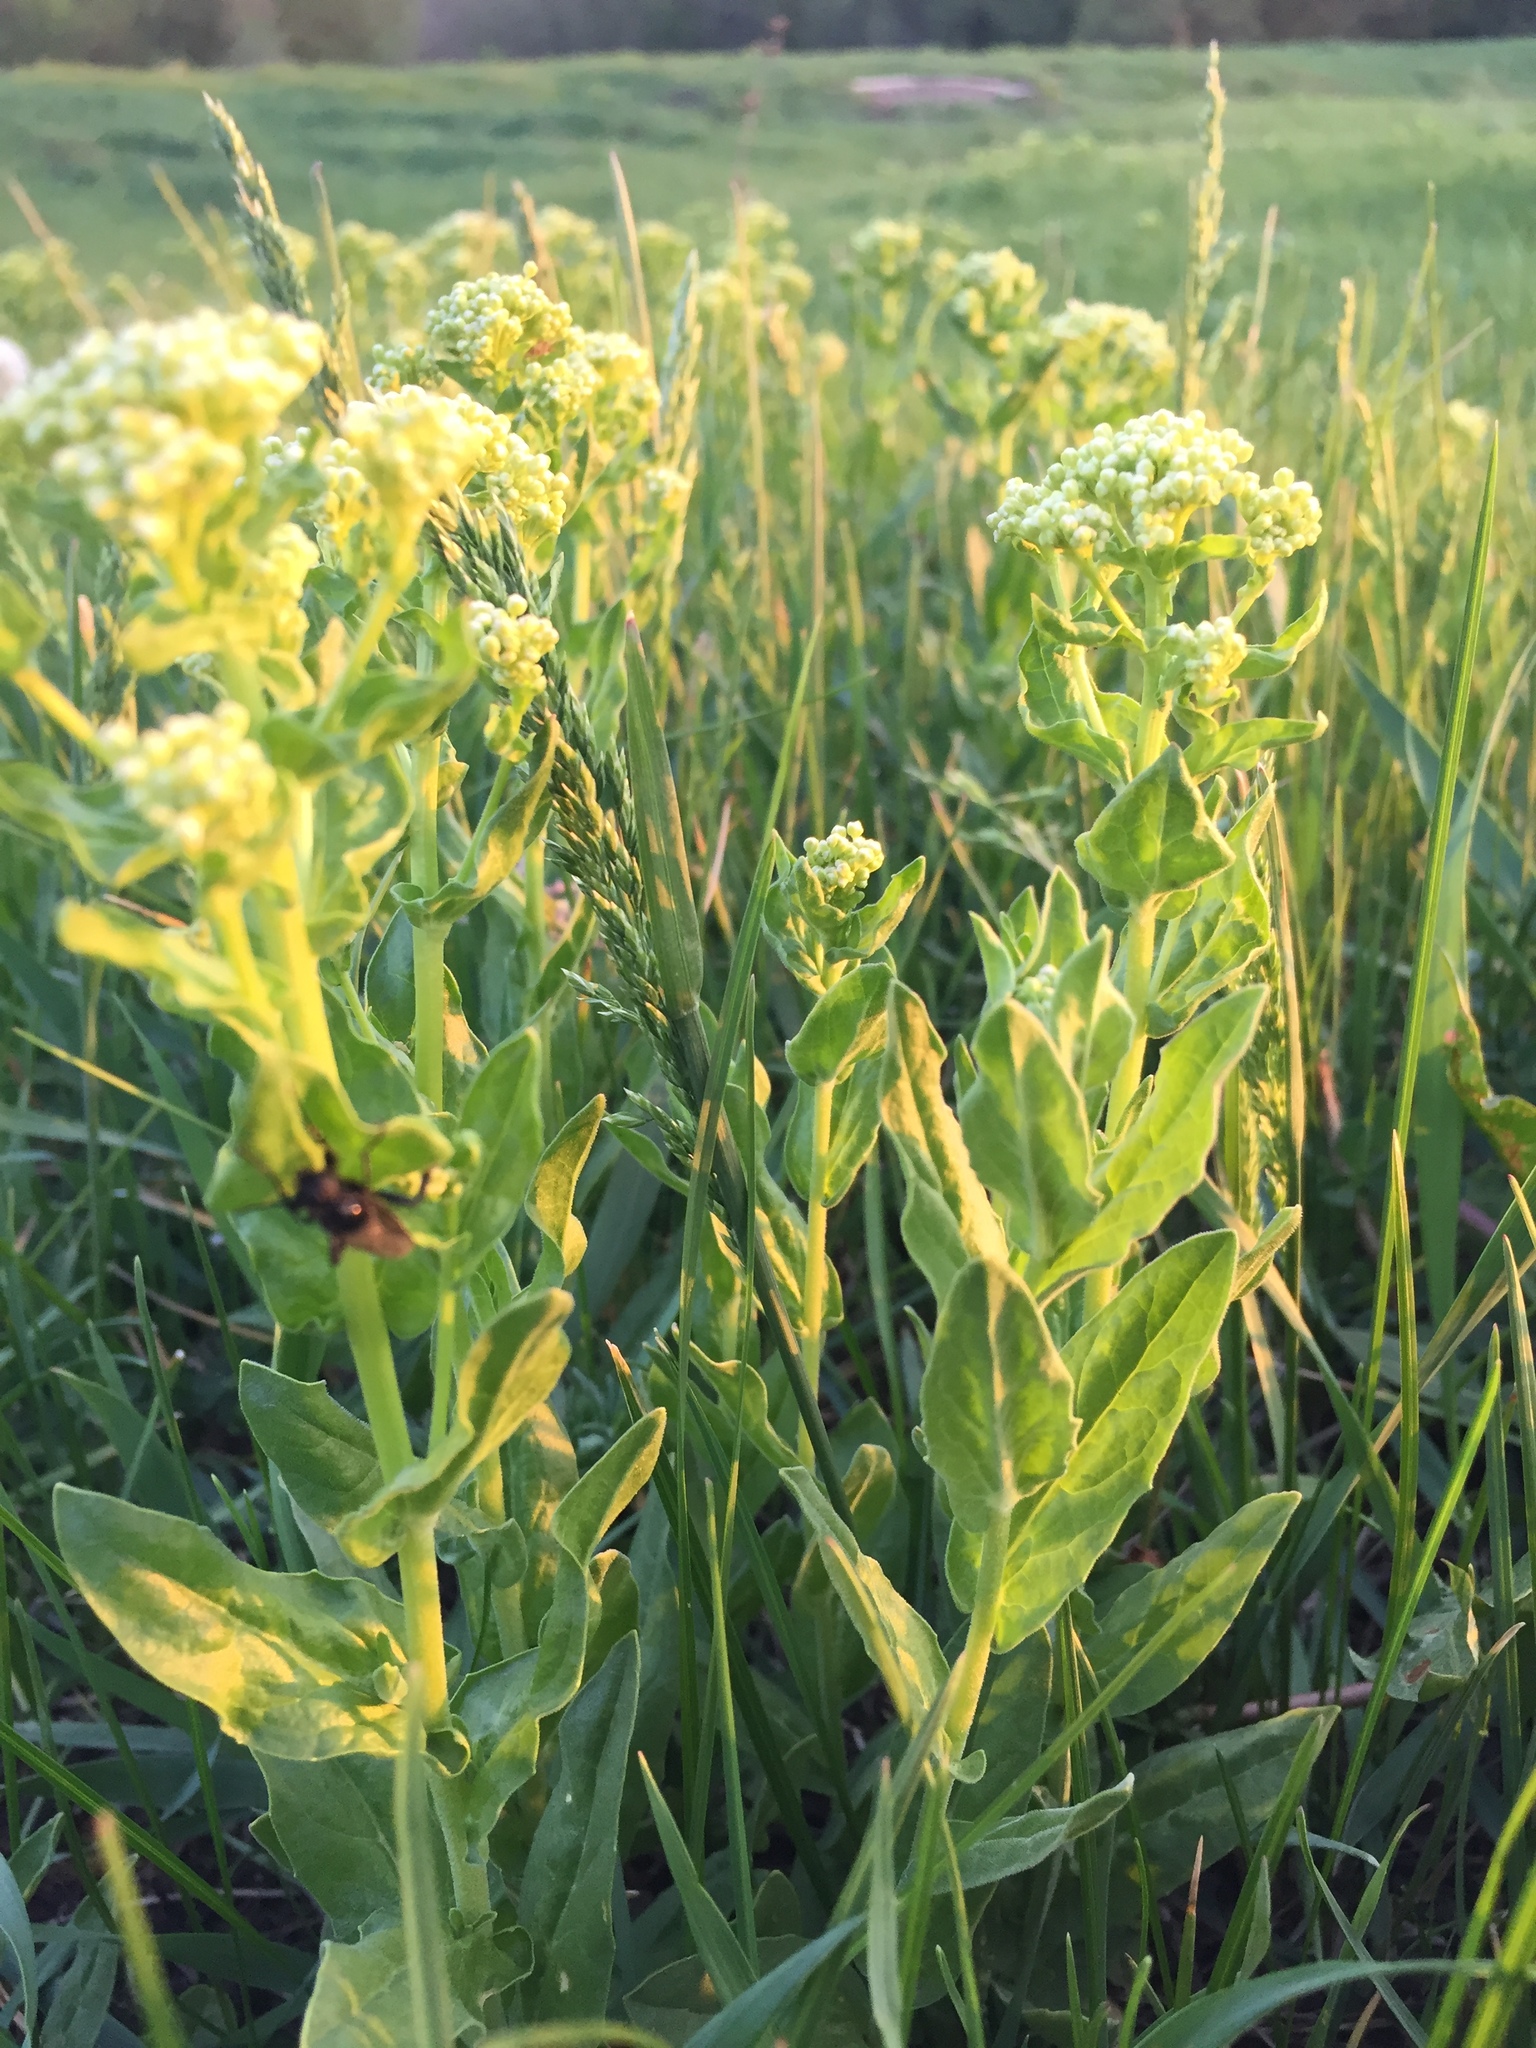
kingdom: Plantae
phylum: Tracheophyta
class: Magnoliopsida
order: Brassicales
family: Brassicaceae
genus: Lepidium
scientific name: Lepidium draba
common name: Hoary cress
